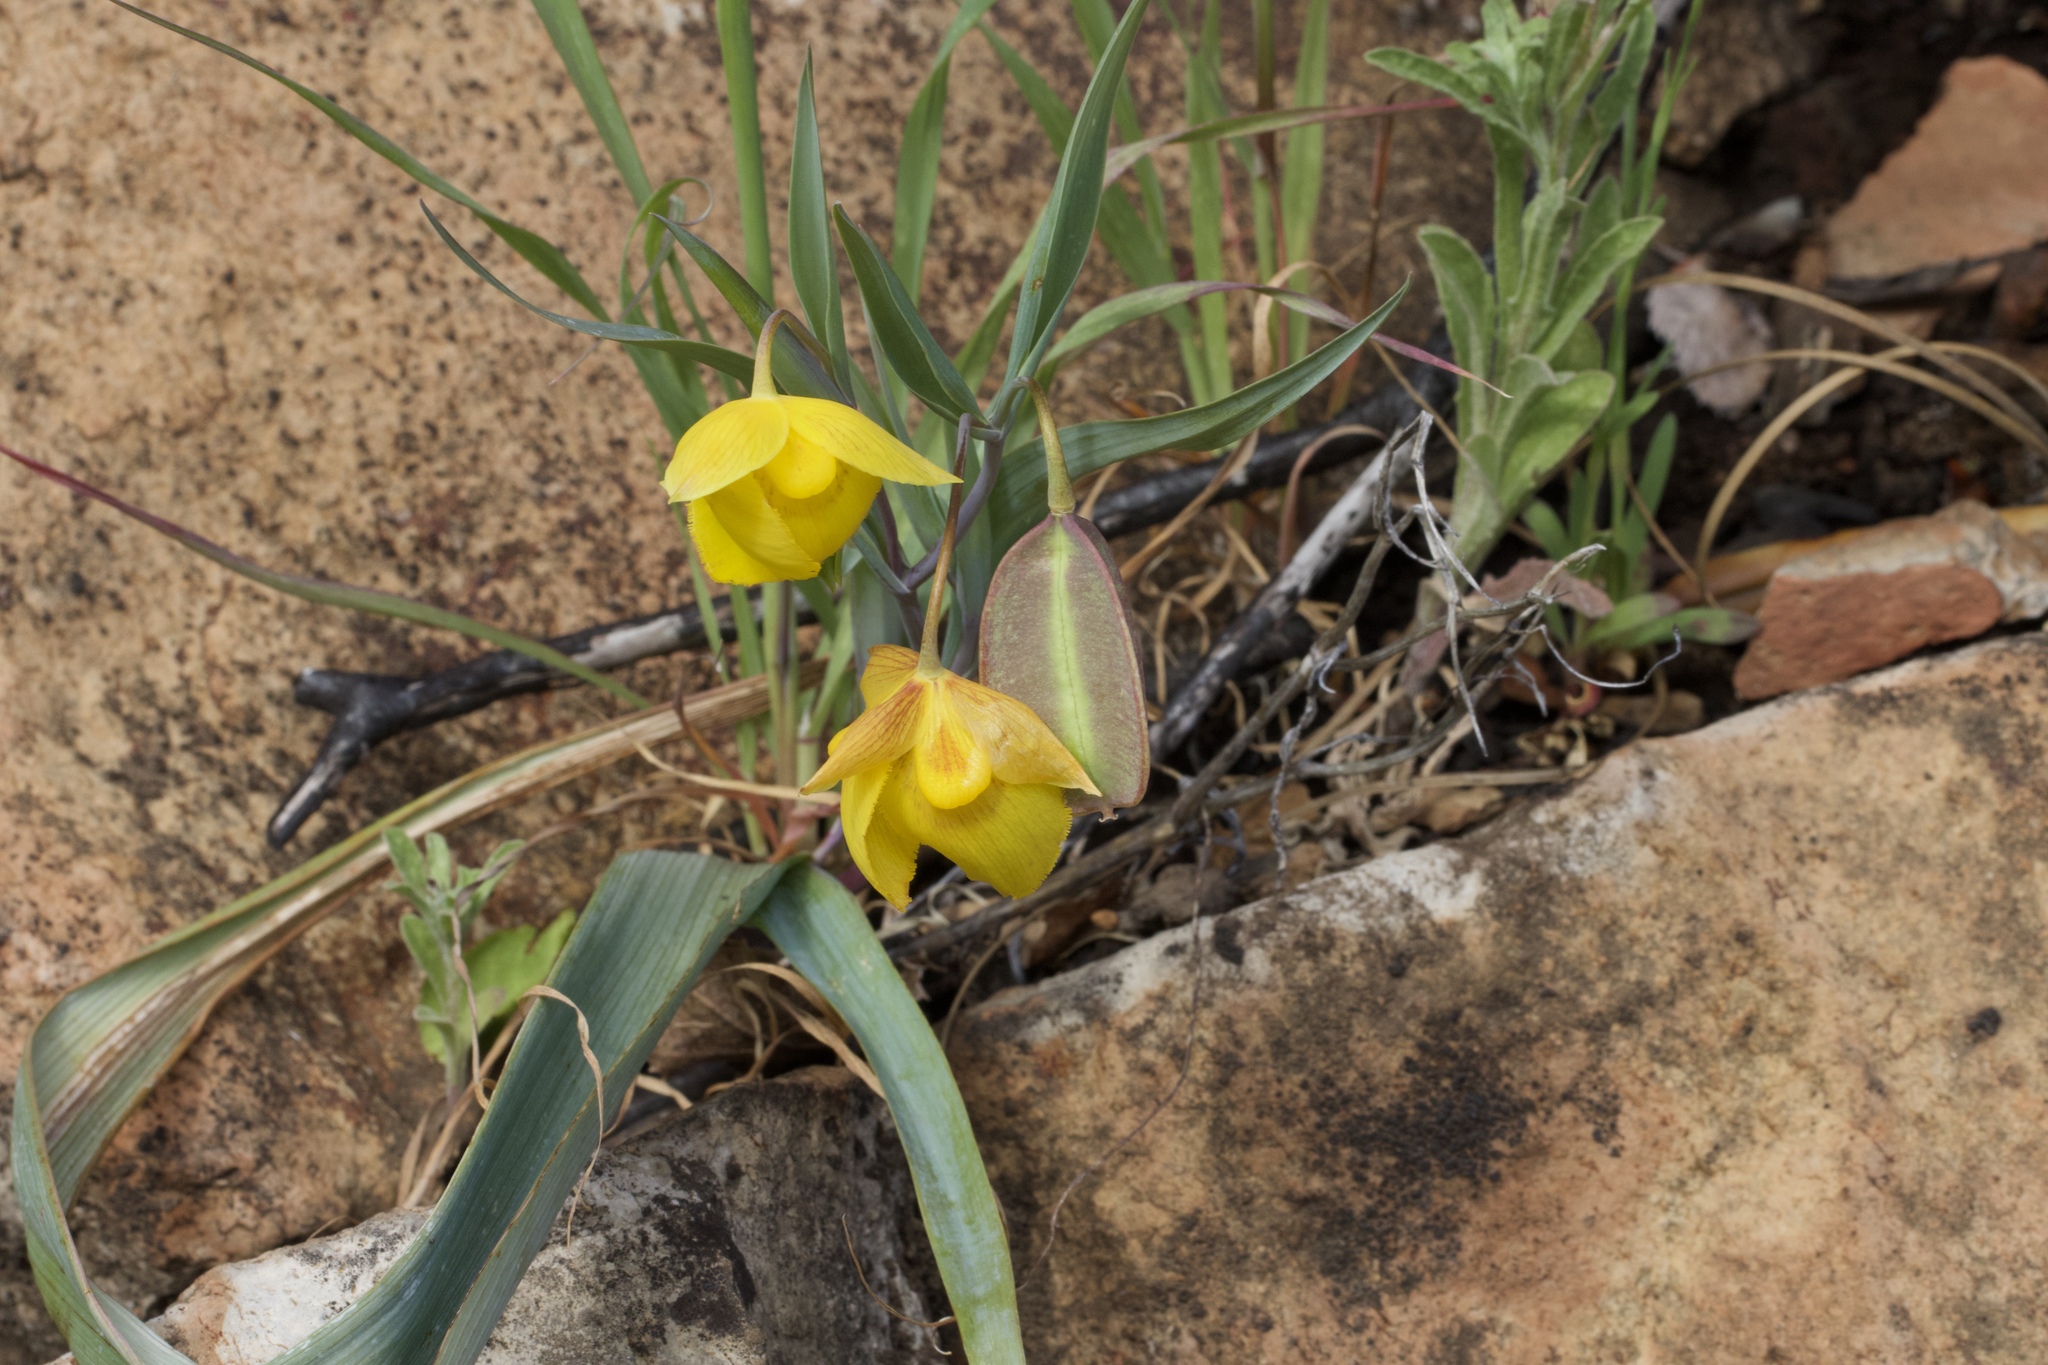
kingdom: Plantae
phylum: Tracheophyta
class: Liliopsida
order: Liliales
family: Liliaceae
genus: Calochortus
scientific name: Calochortus amabilis
